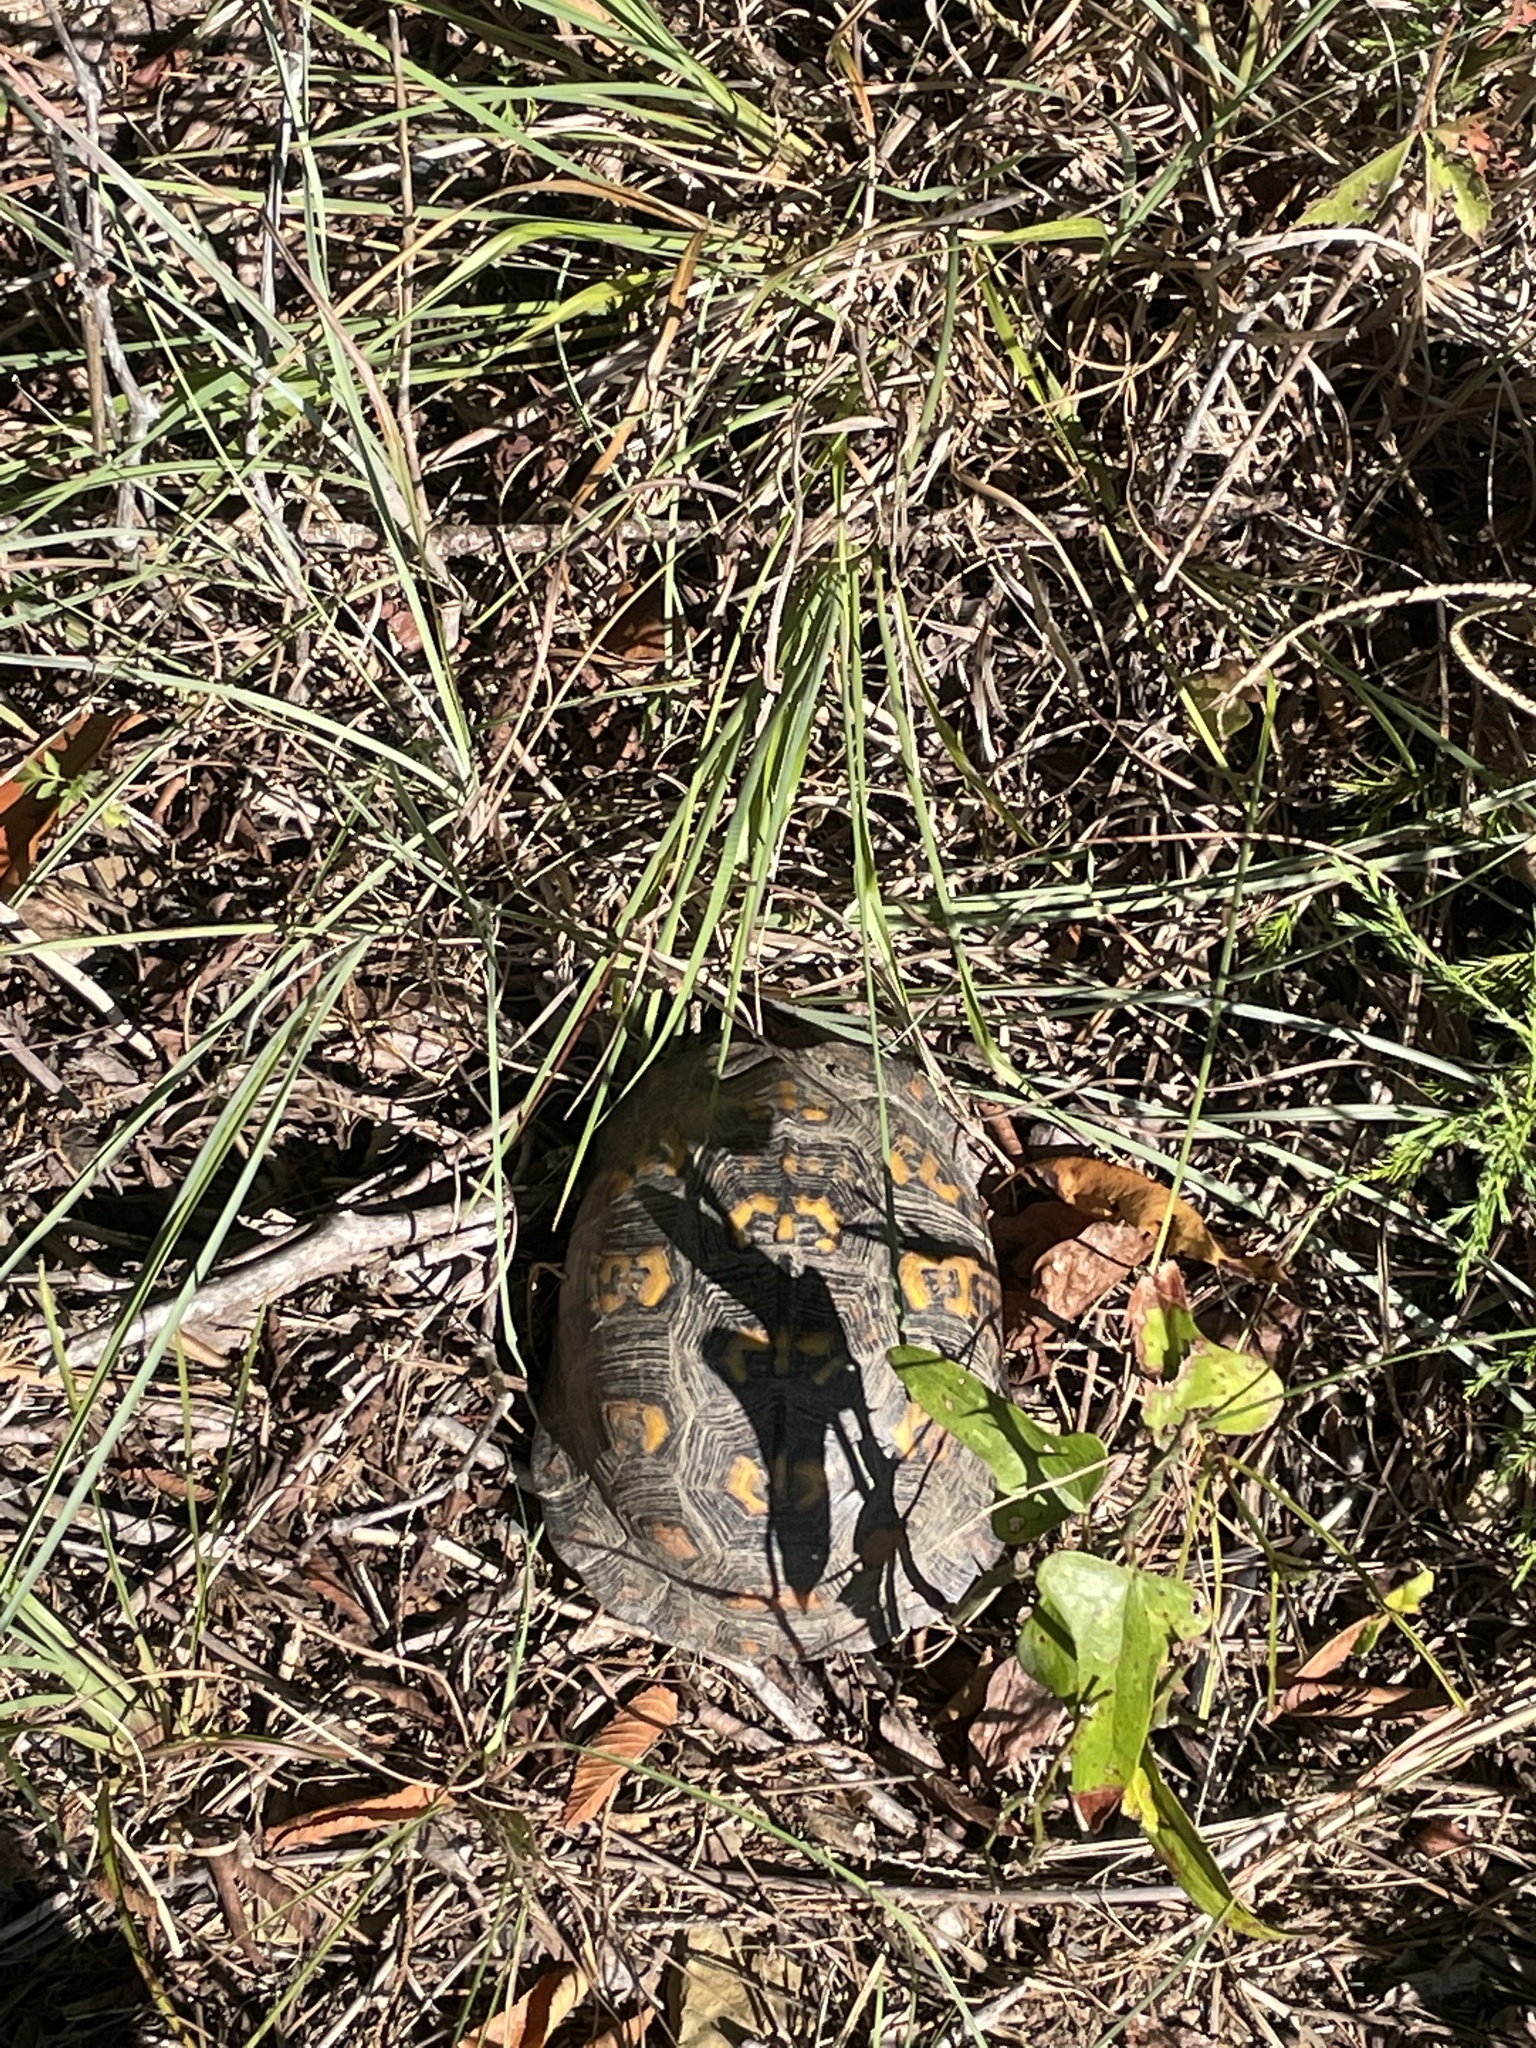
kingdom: Animalia
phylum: Chordata
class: Testudines
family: Emydidae
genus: Terrapene
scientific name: Terrapene carolina
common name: Common box turtle
